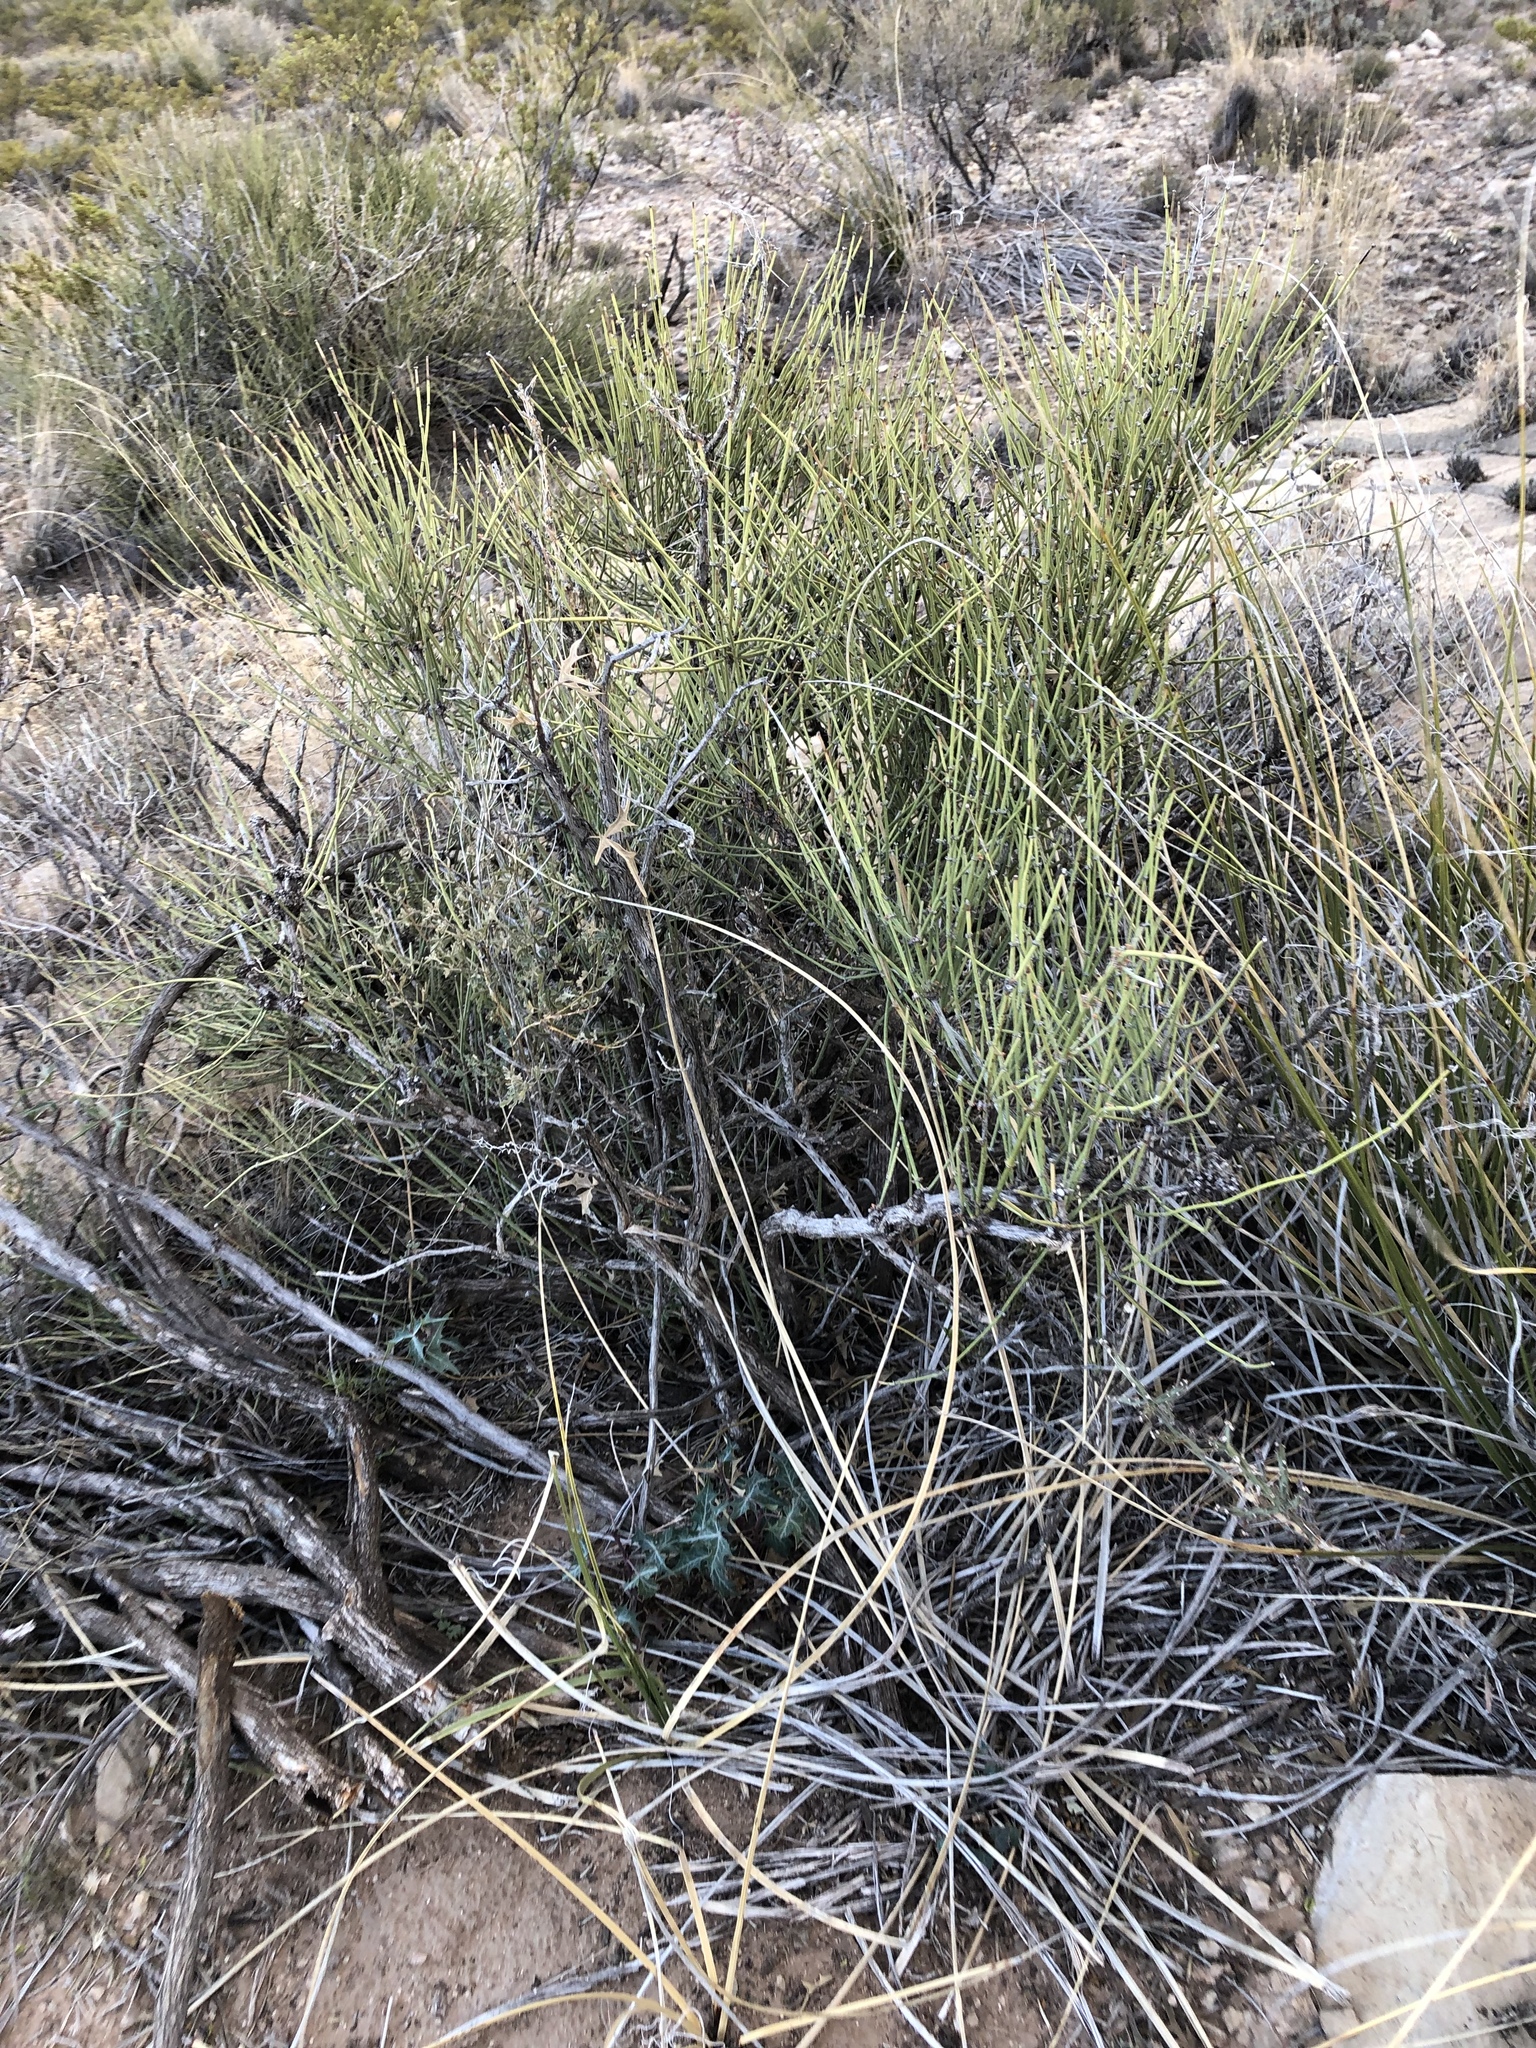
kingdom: Plantae
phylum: Tracheophyta
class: Gnetopsida
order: Ephedrales
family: Ephedraceae
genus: Ephedra
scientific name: Ephedra aspera
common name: Boundary ephedra
